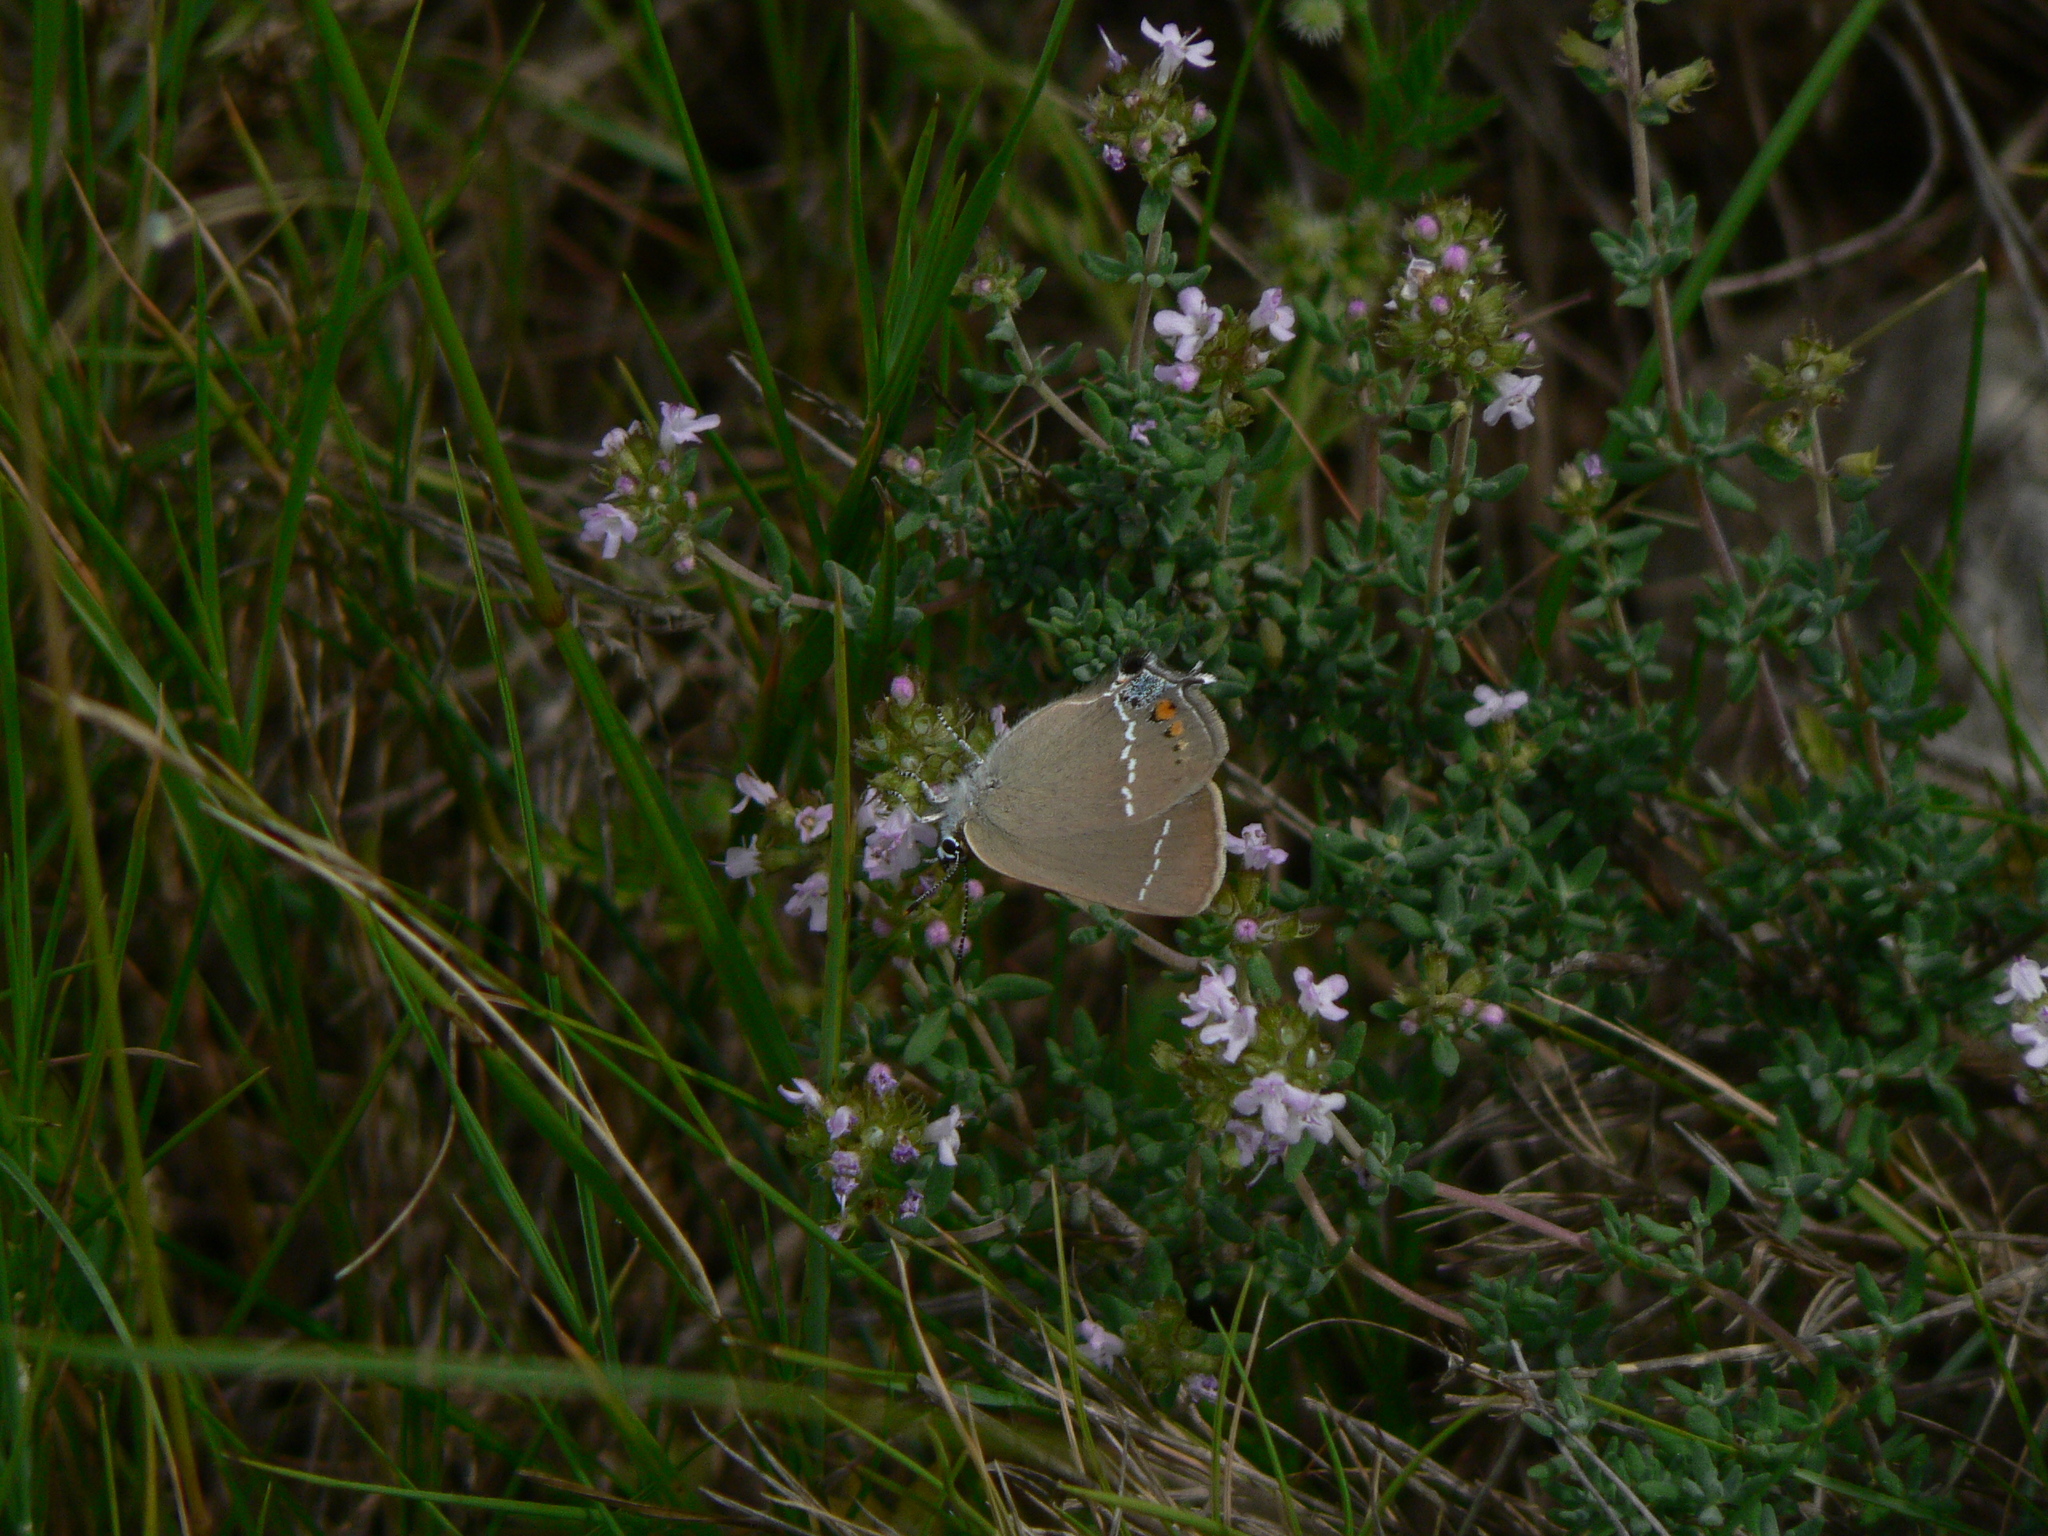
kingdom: Animalia
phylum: Arthropoda
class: Insecta
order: Lepidoptera
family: Lycaenidae
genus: Tuttiola
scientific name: Tuttiola spini
